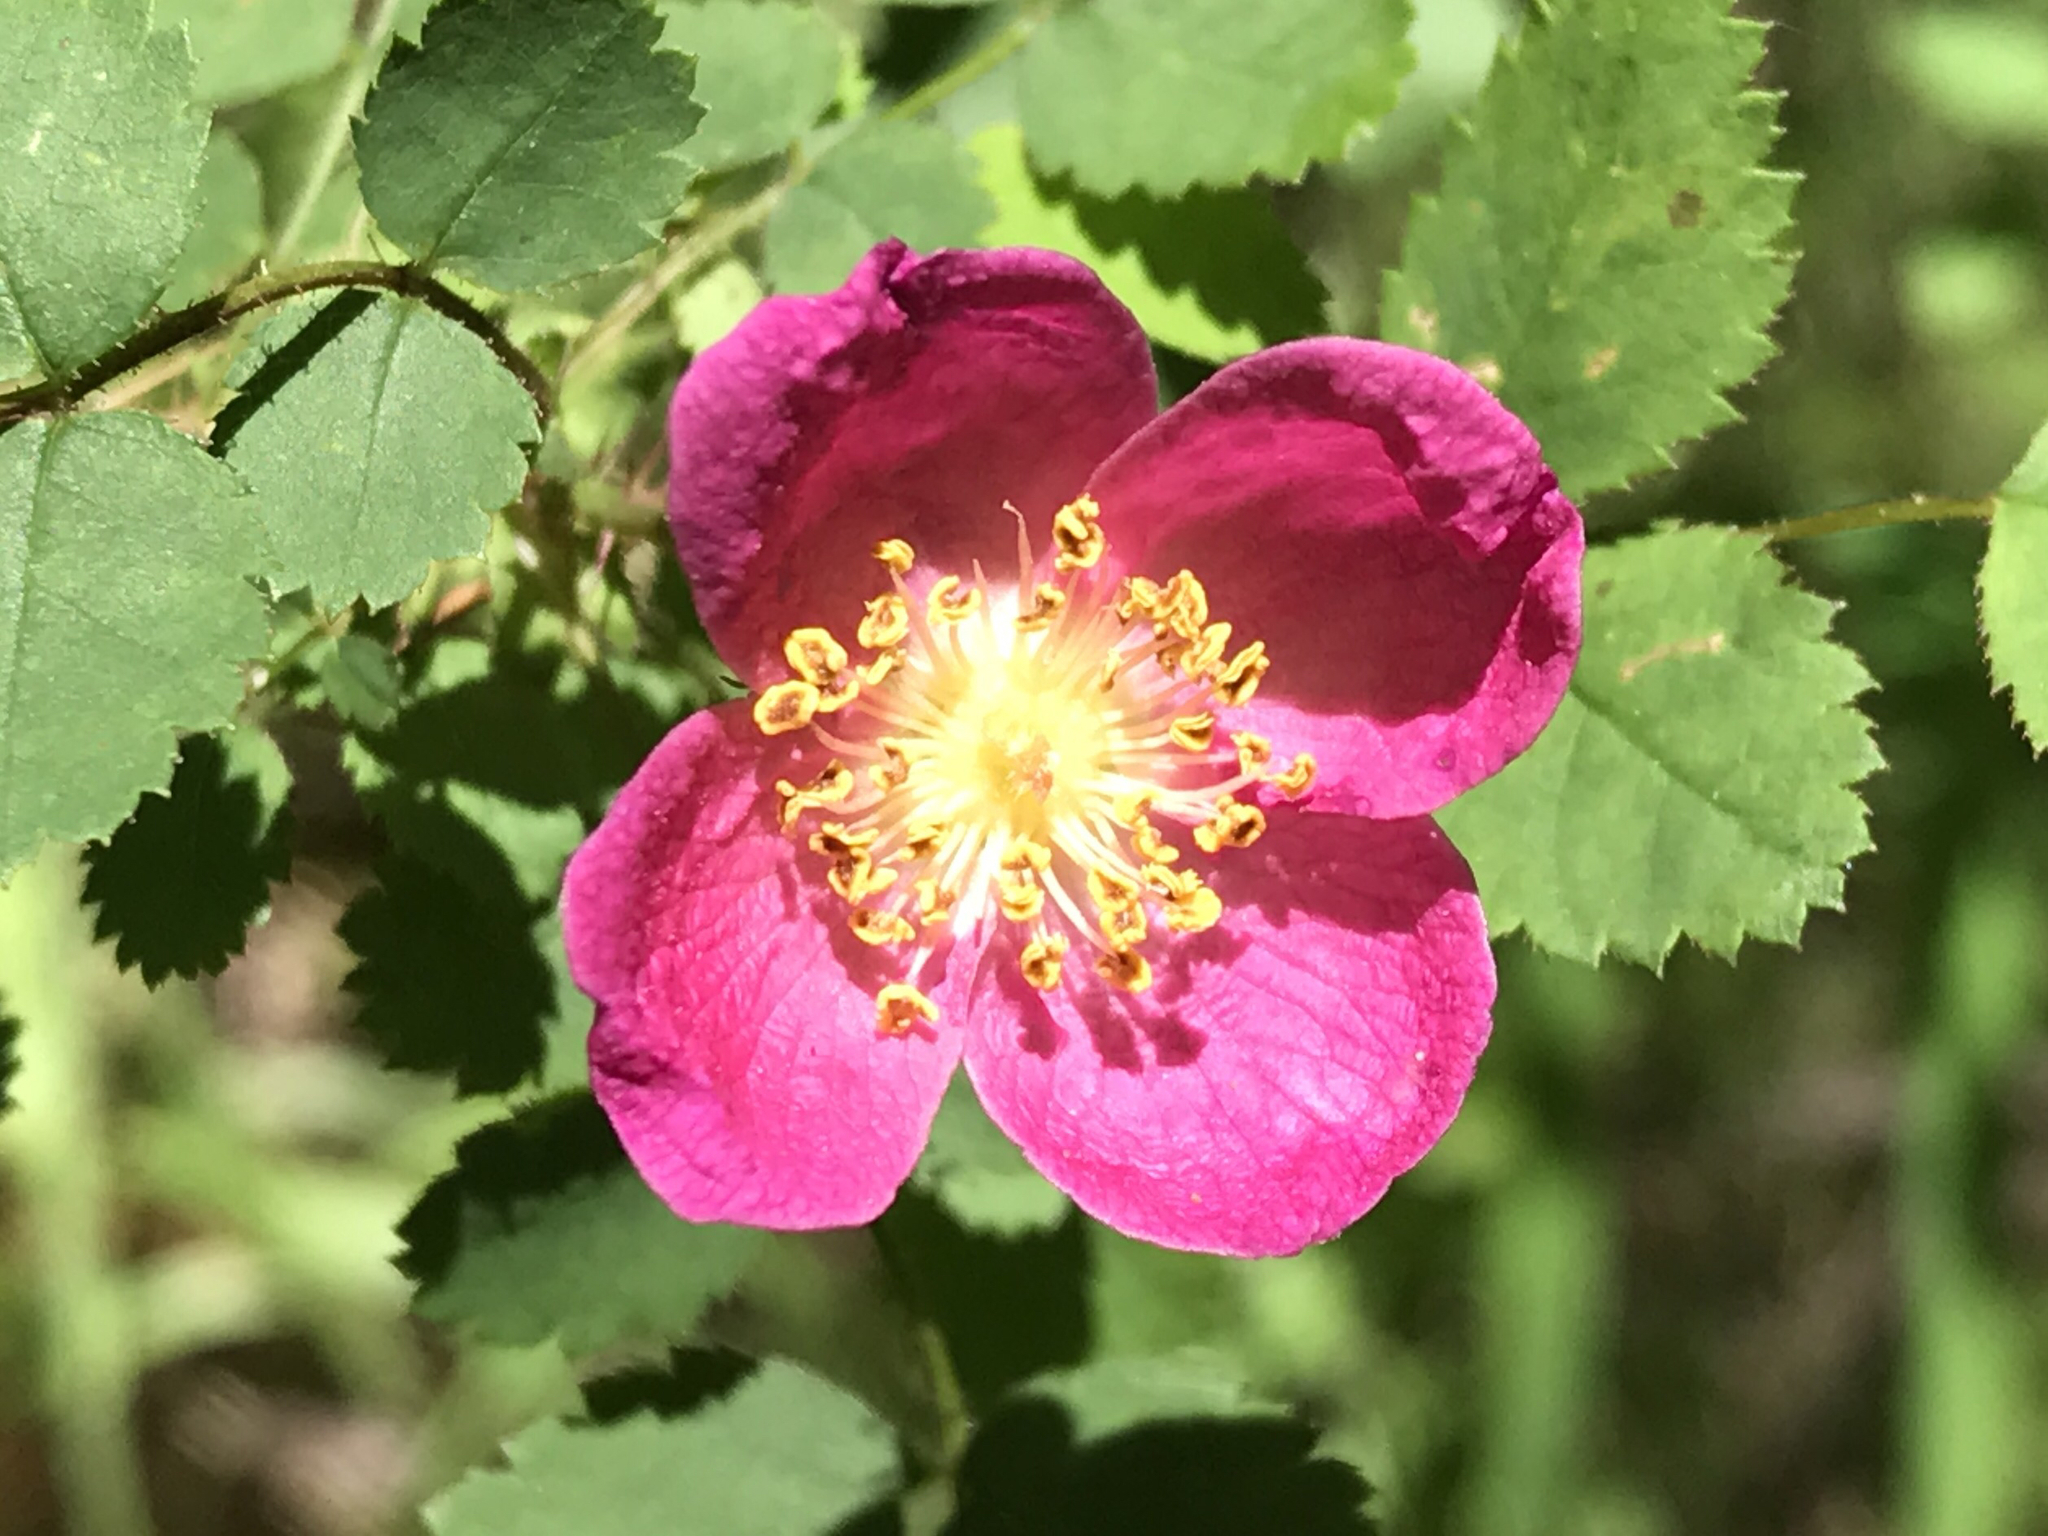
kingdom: Plantae
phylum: Tracheophyta
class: Magnoliopsida
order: Rosales
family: Rosaceae
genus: Rosa
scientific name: Rosa
